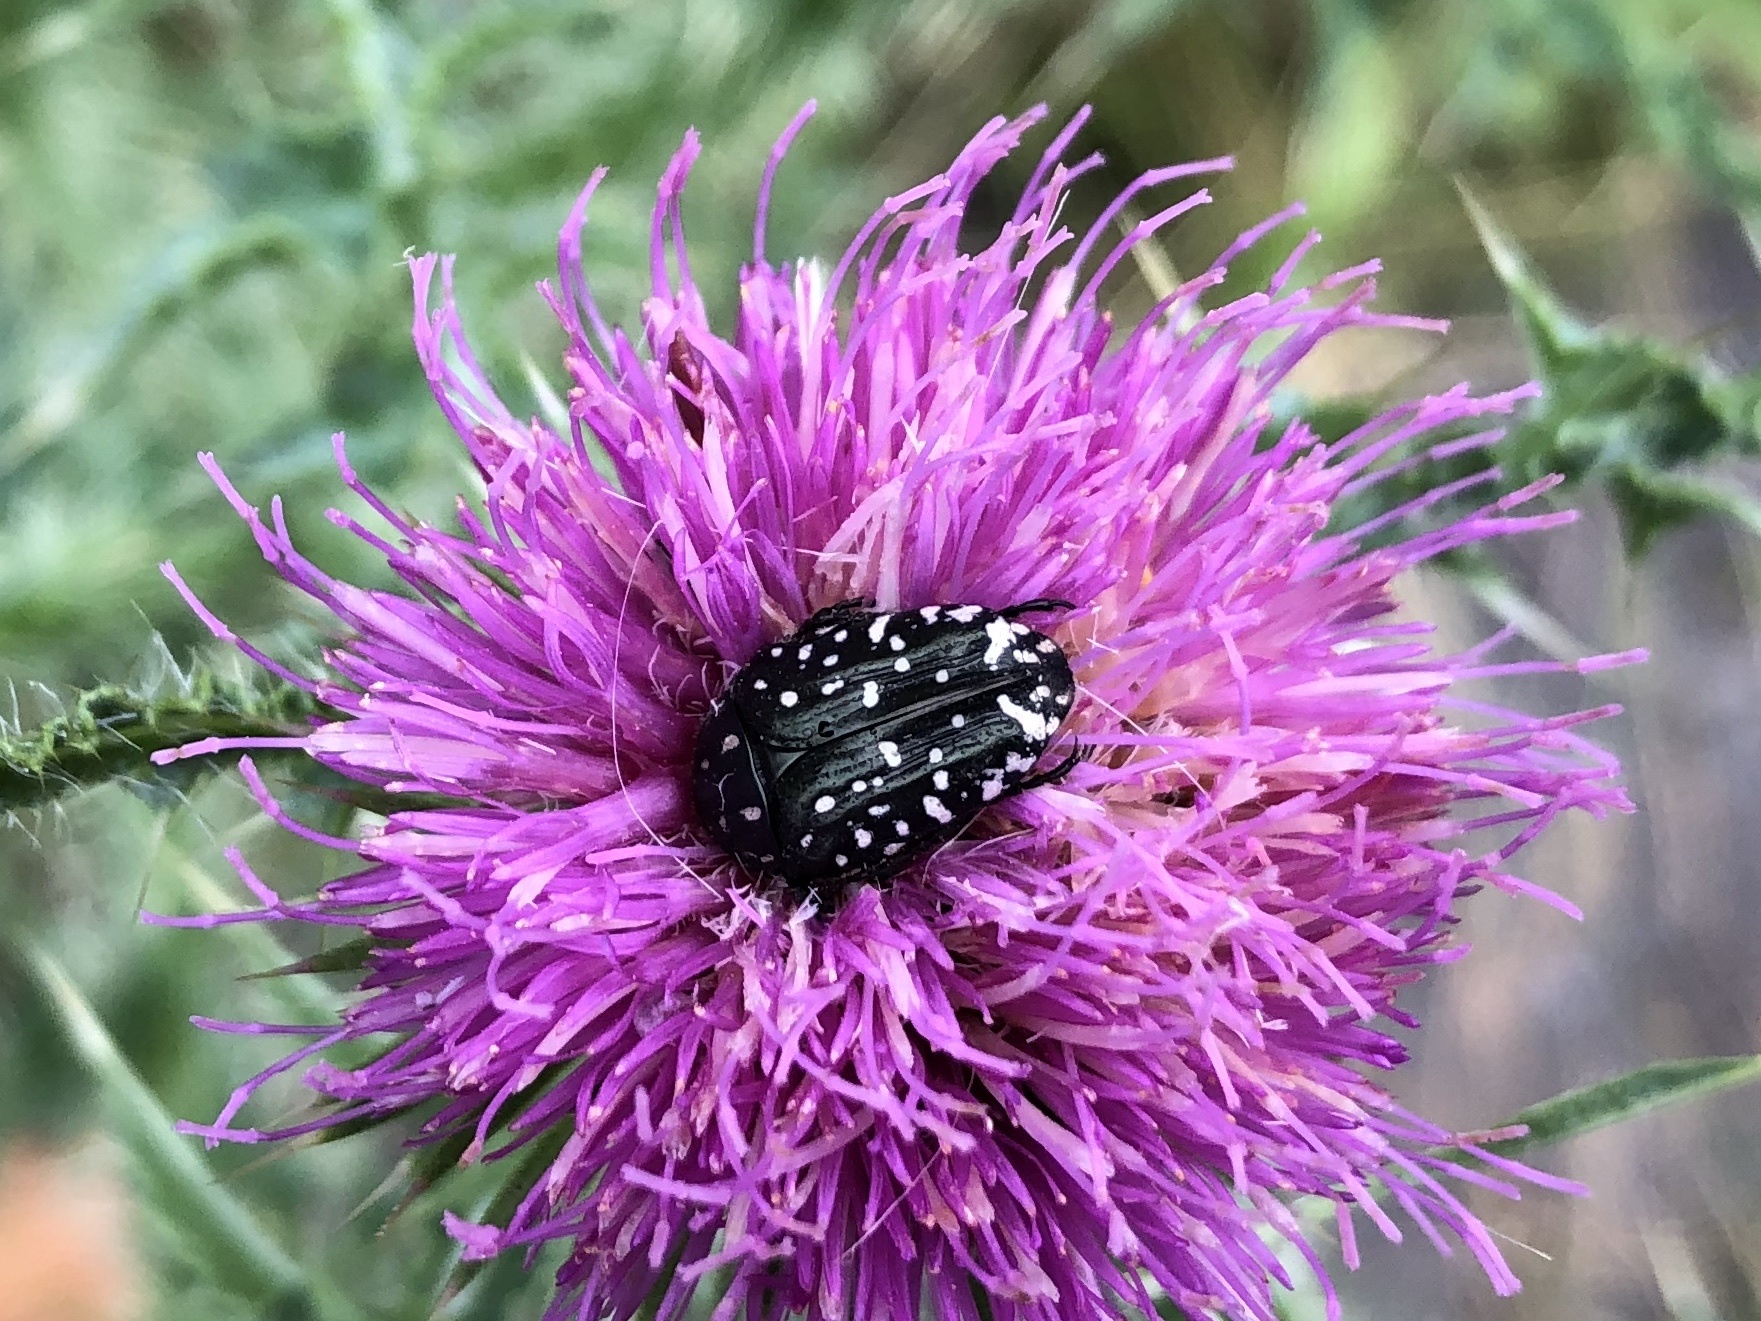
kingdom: Animalia
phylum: Arthropoda
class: Insecta
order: Coleoptera
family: Scarabaeidae
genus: Oxythyrea
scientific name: Oxythyrea funesta
